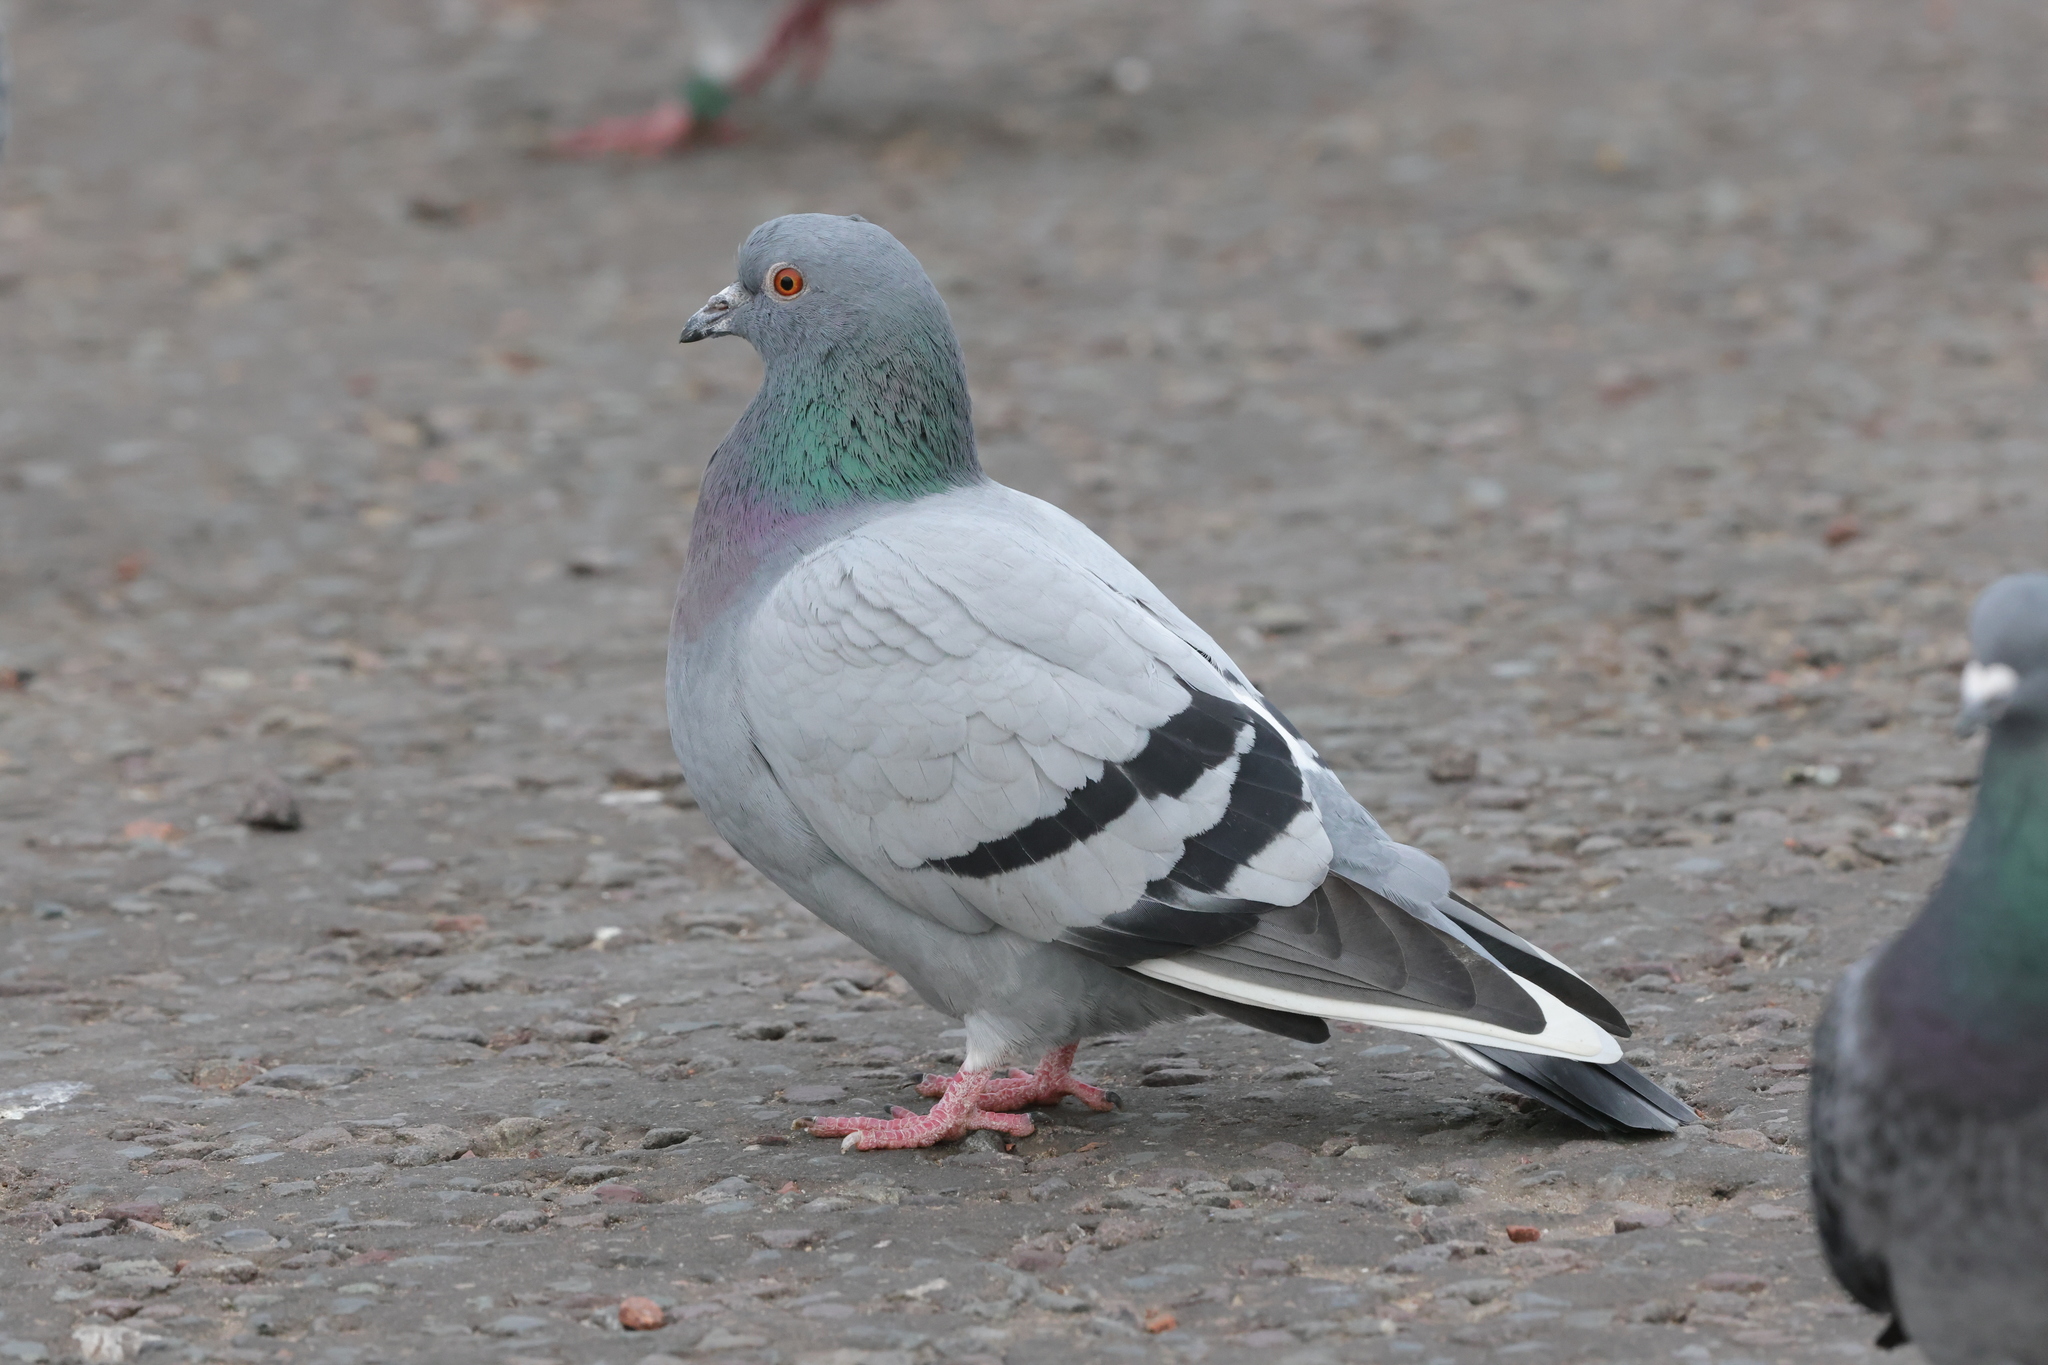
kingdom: Animalia
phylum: Chordata
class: Aves
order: Columbiformes
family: Columbidae
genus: Columba
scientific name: Columba livia
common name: Rock pigeon
